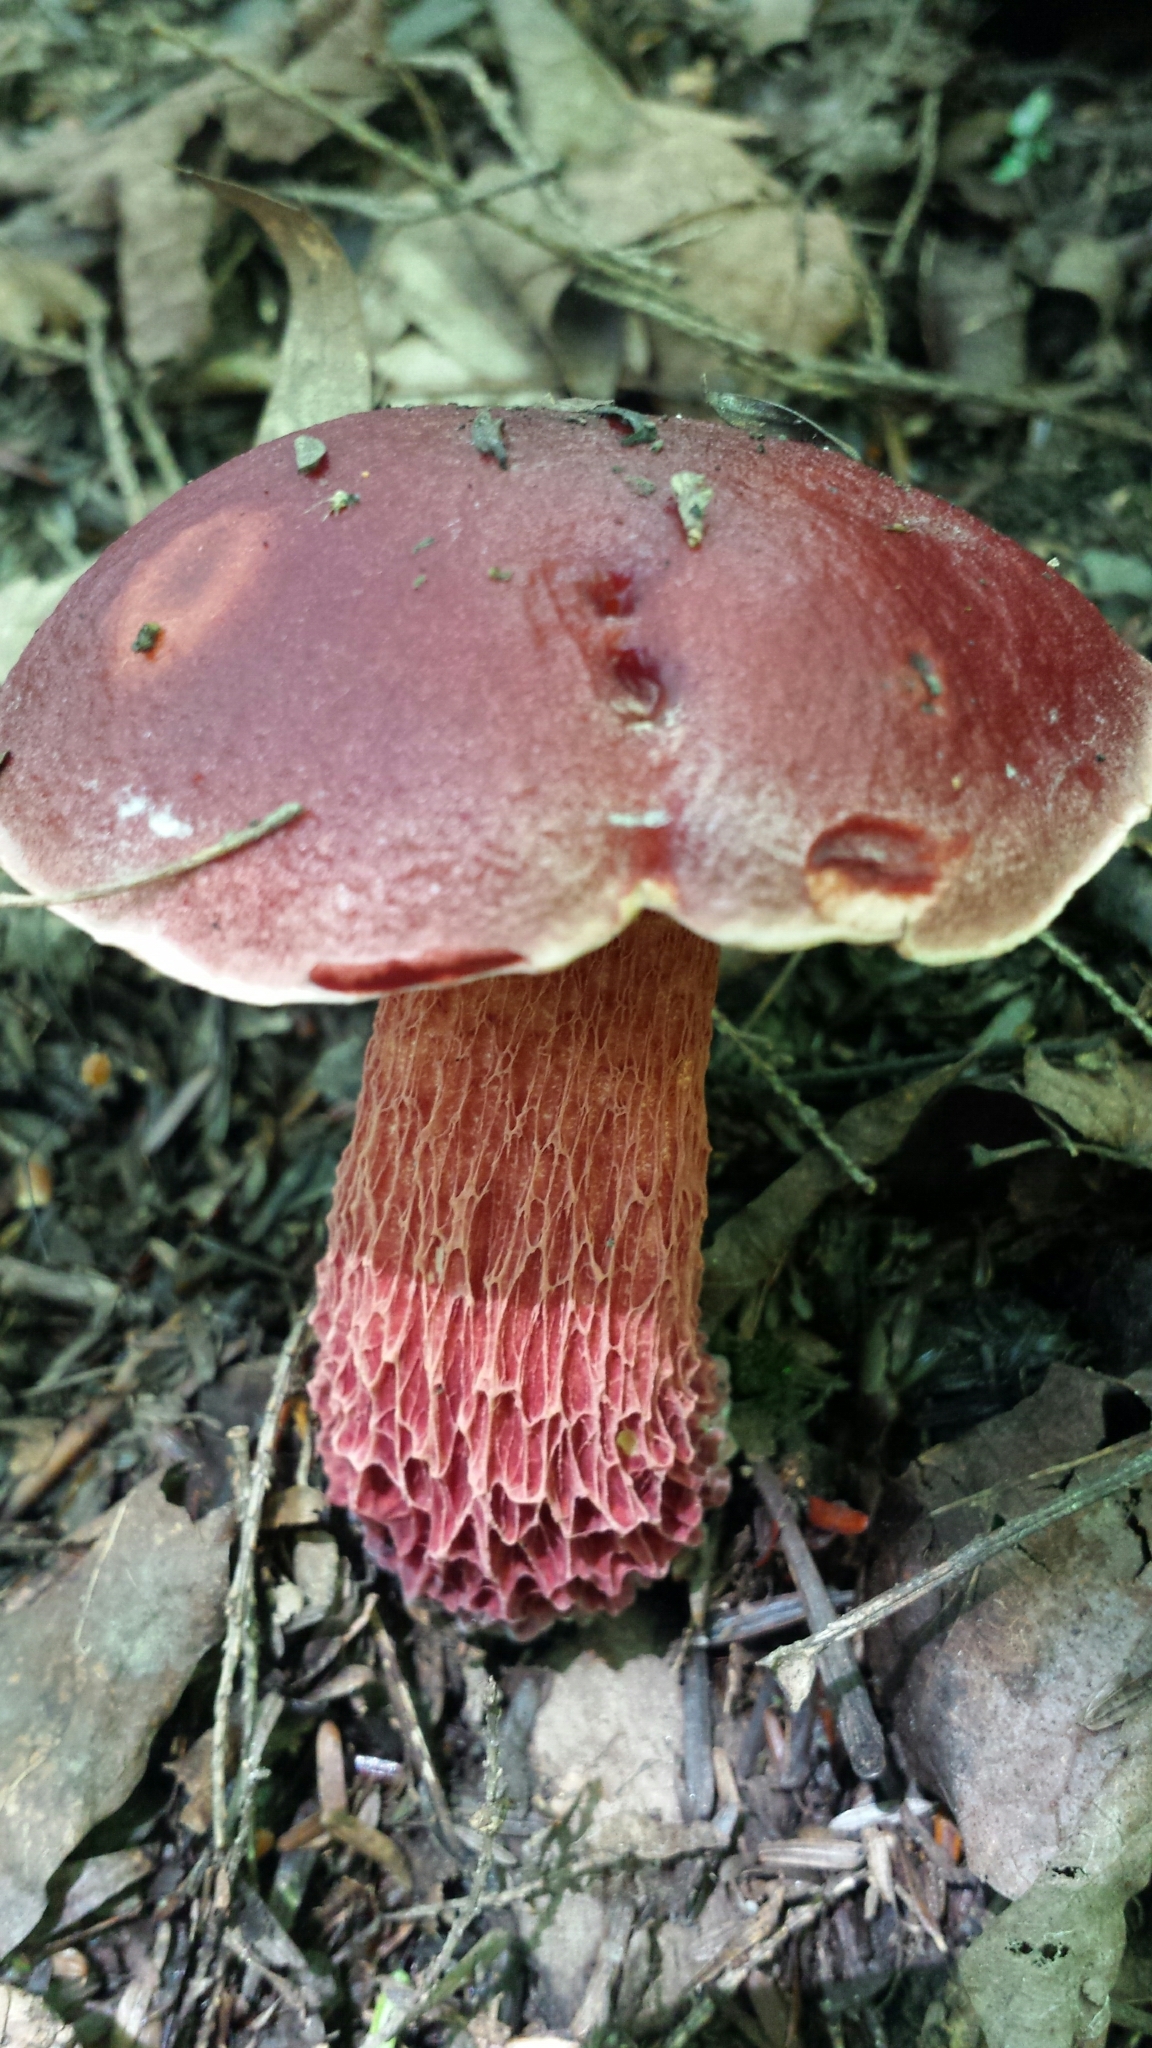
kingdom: Fungi
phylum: Basidiomycota
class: Agaricomycetes
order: Boletales
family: Boletaceae
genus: Butyriboletus
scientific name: Butyriboletus frostii
